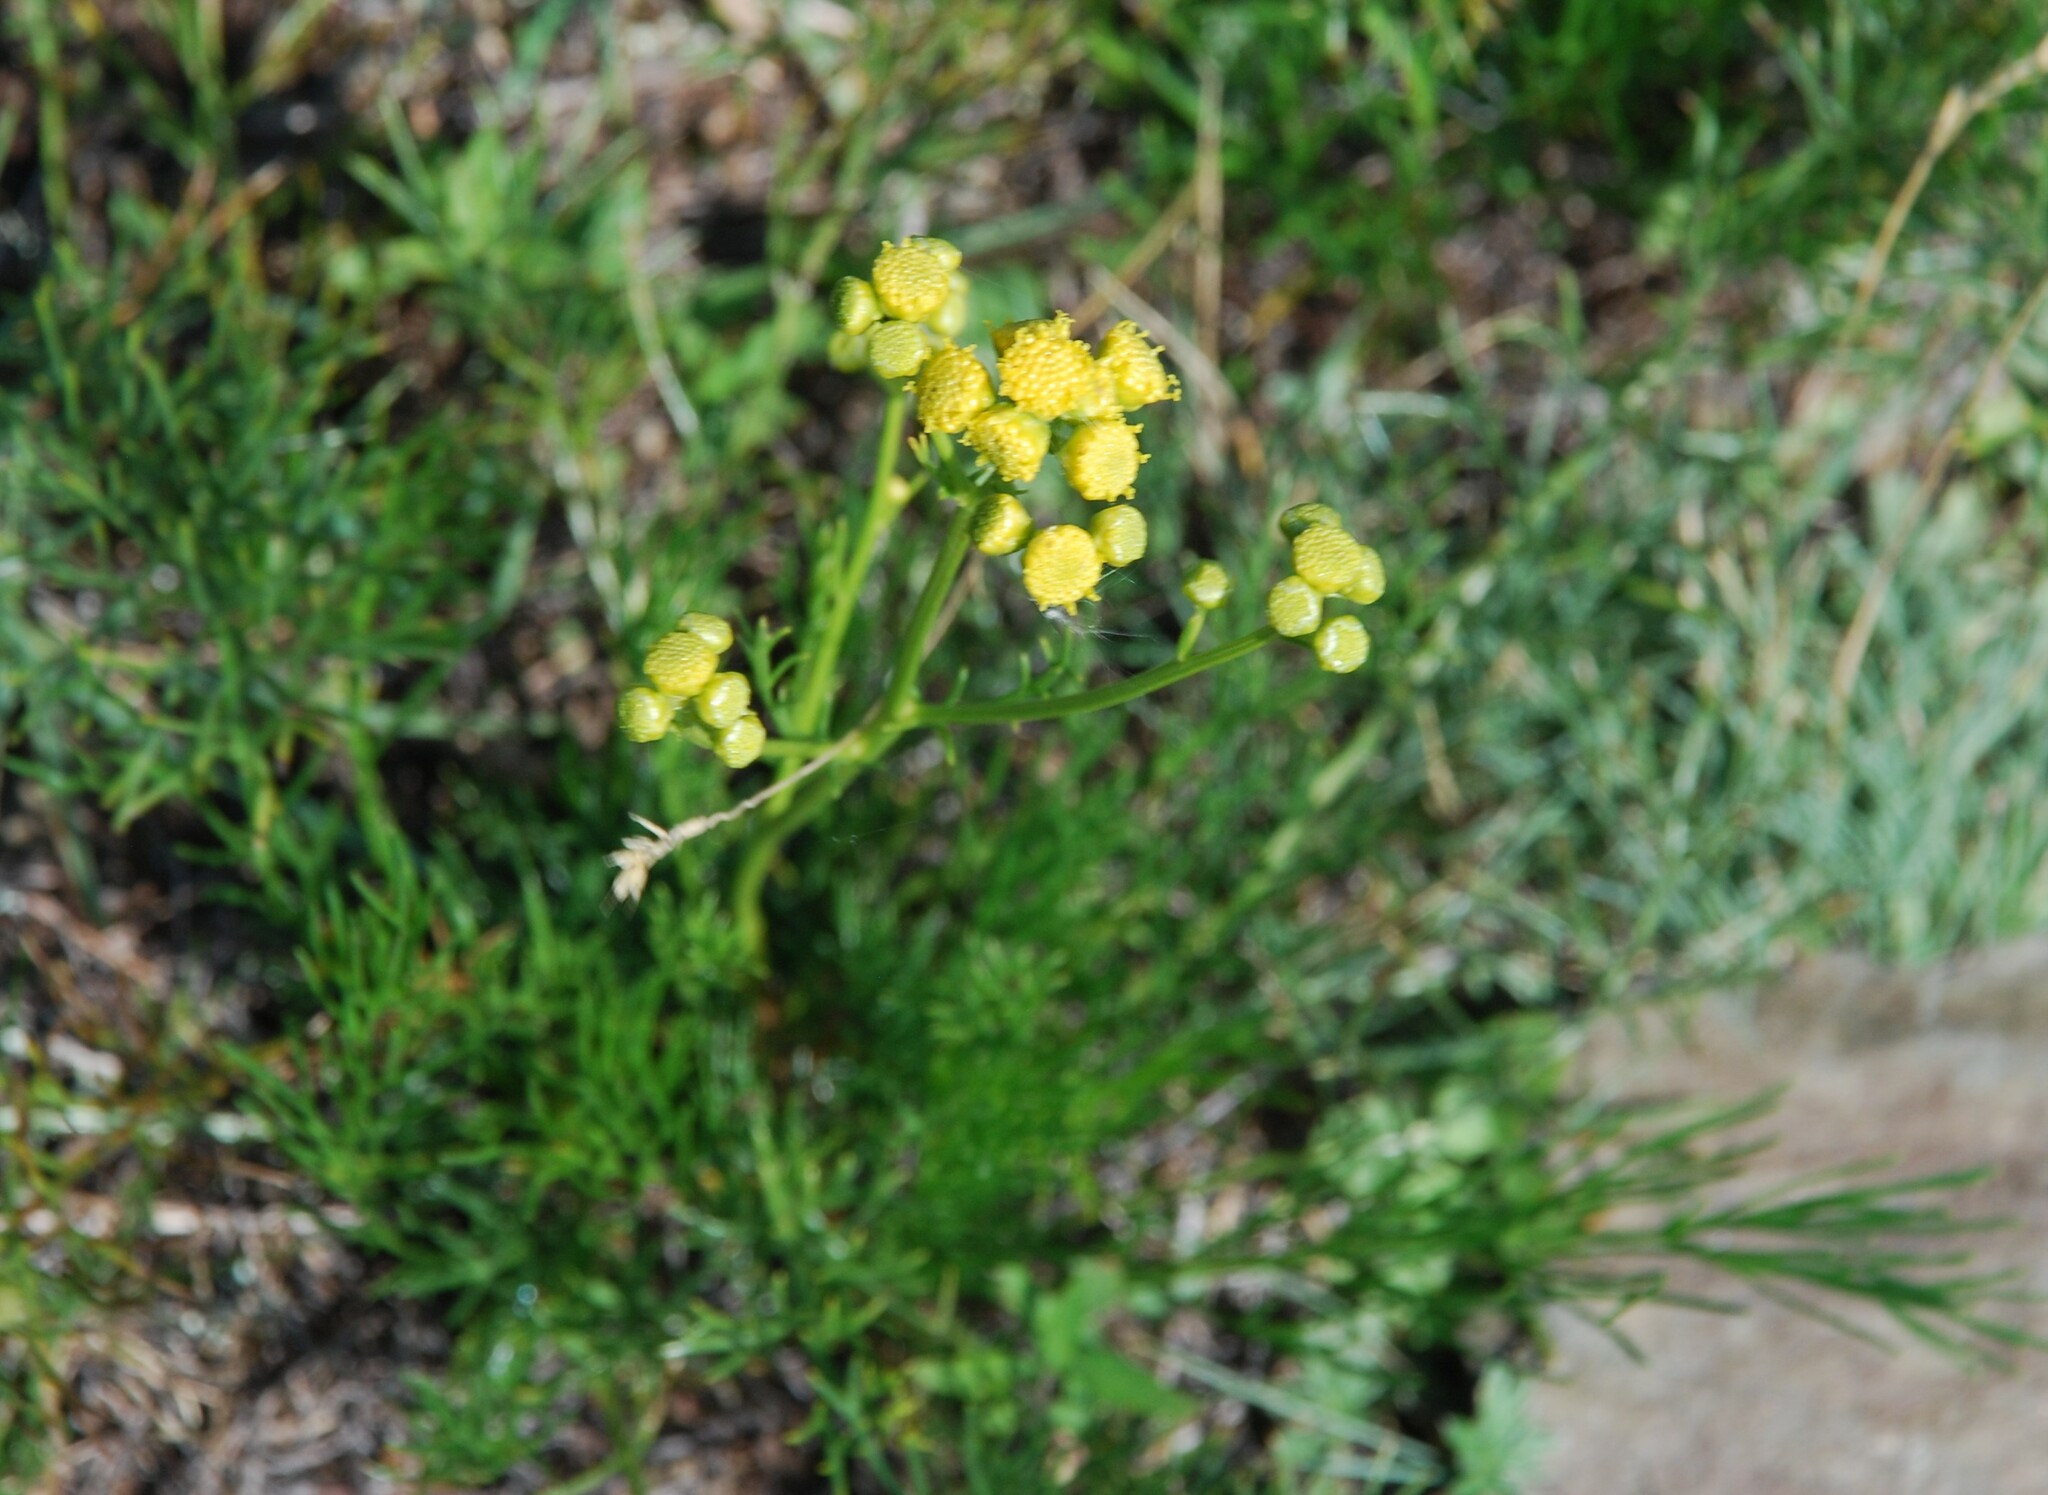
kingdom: Plantae
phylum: Tracheophyta
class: Magnoliopsida
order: Asterales
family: Asteraceae
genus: Filifolium
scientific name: Filifolium sibiricum
